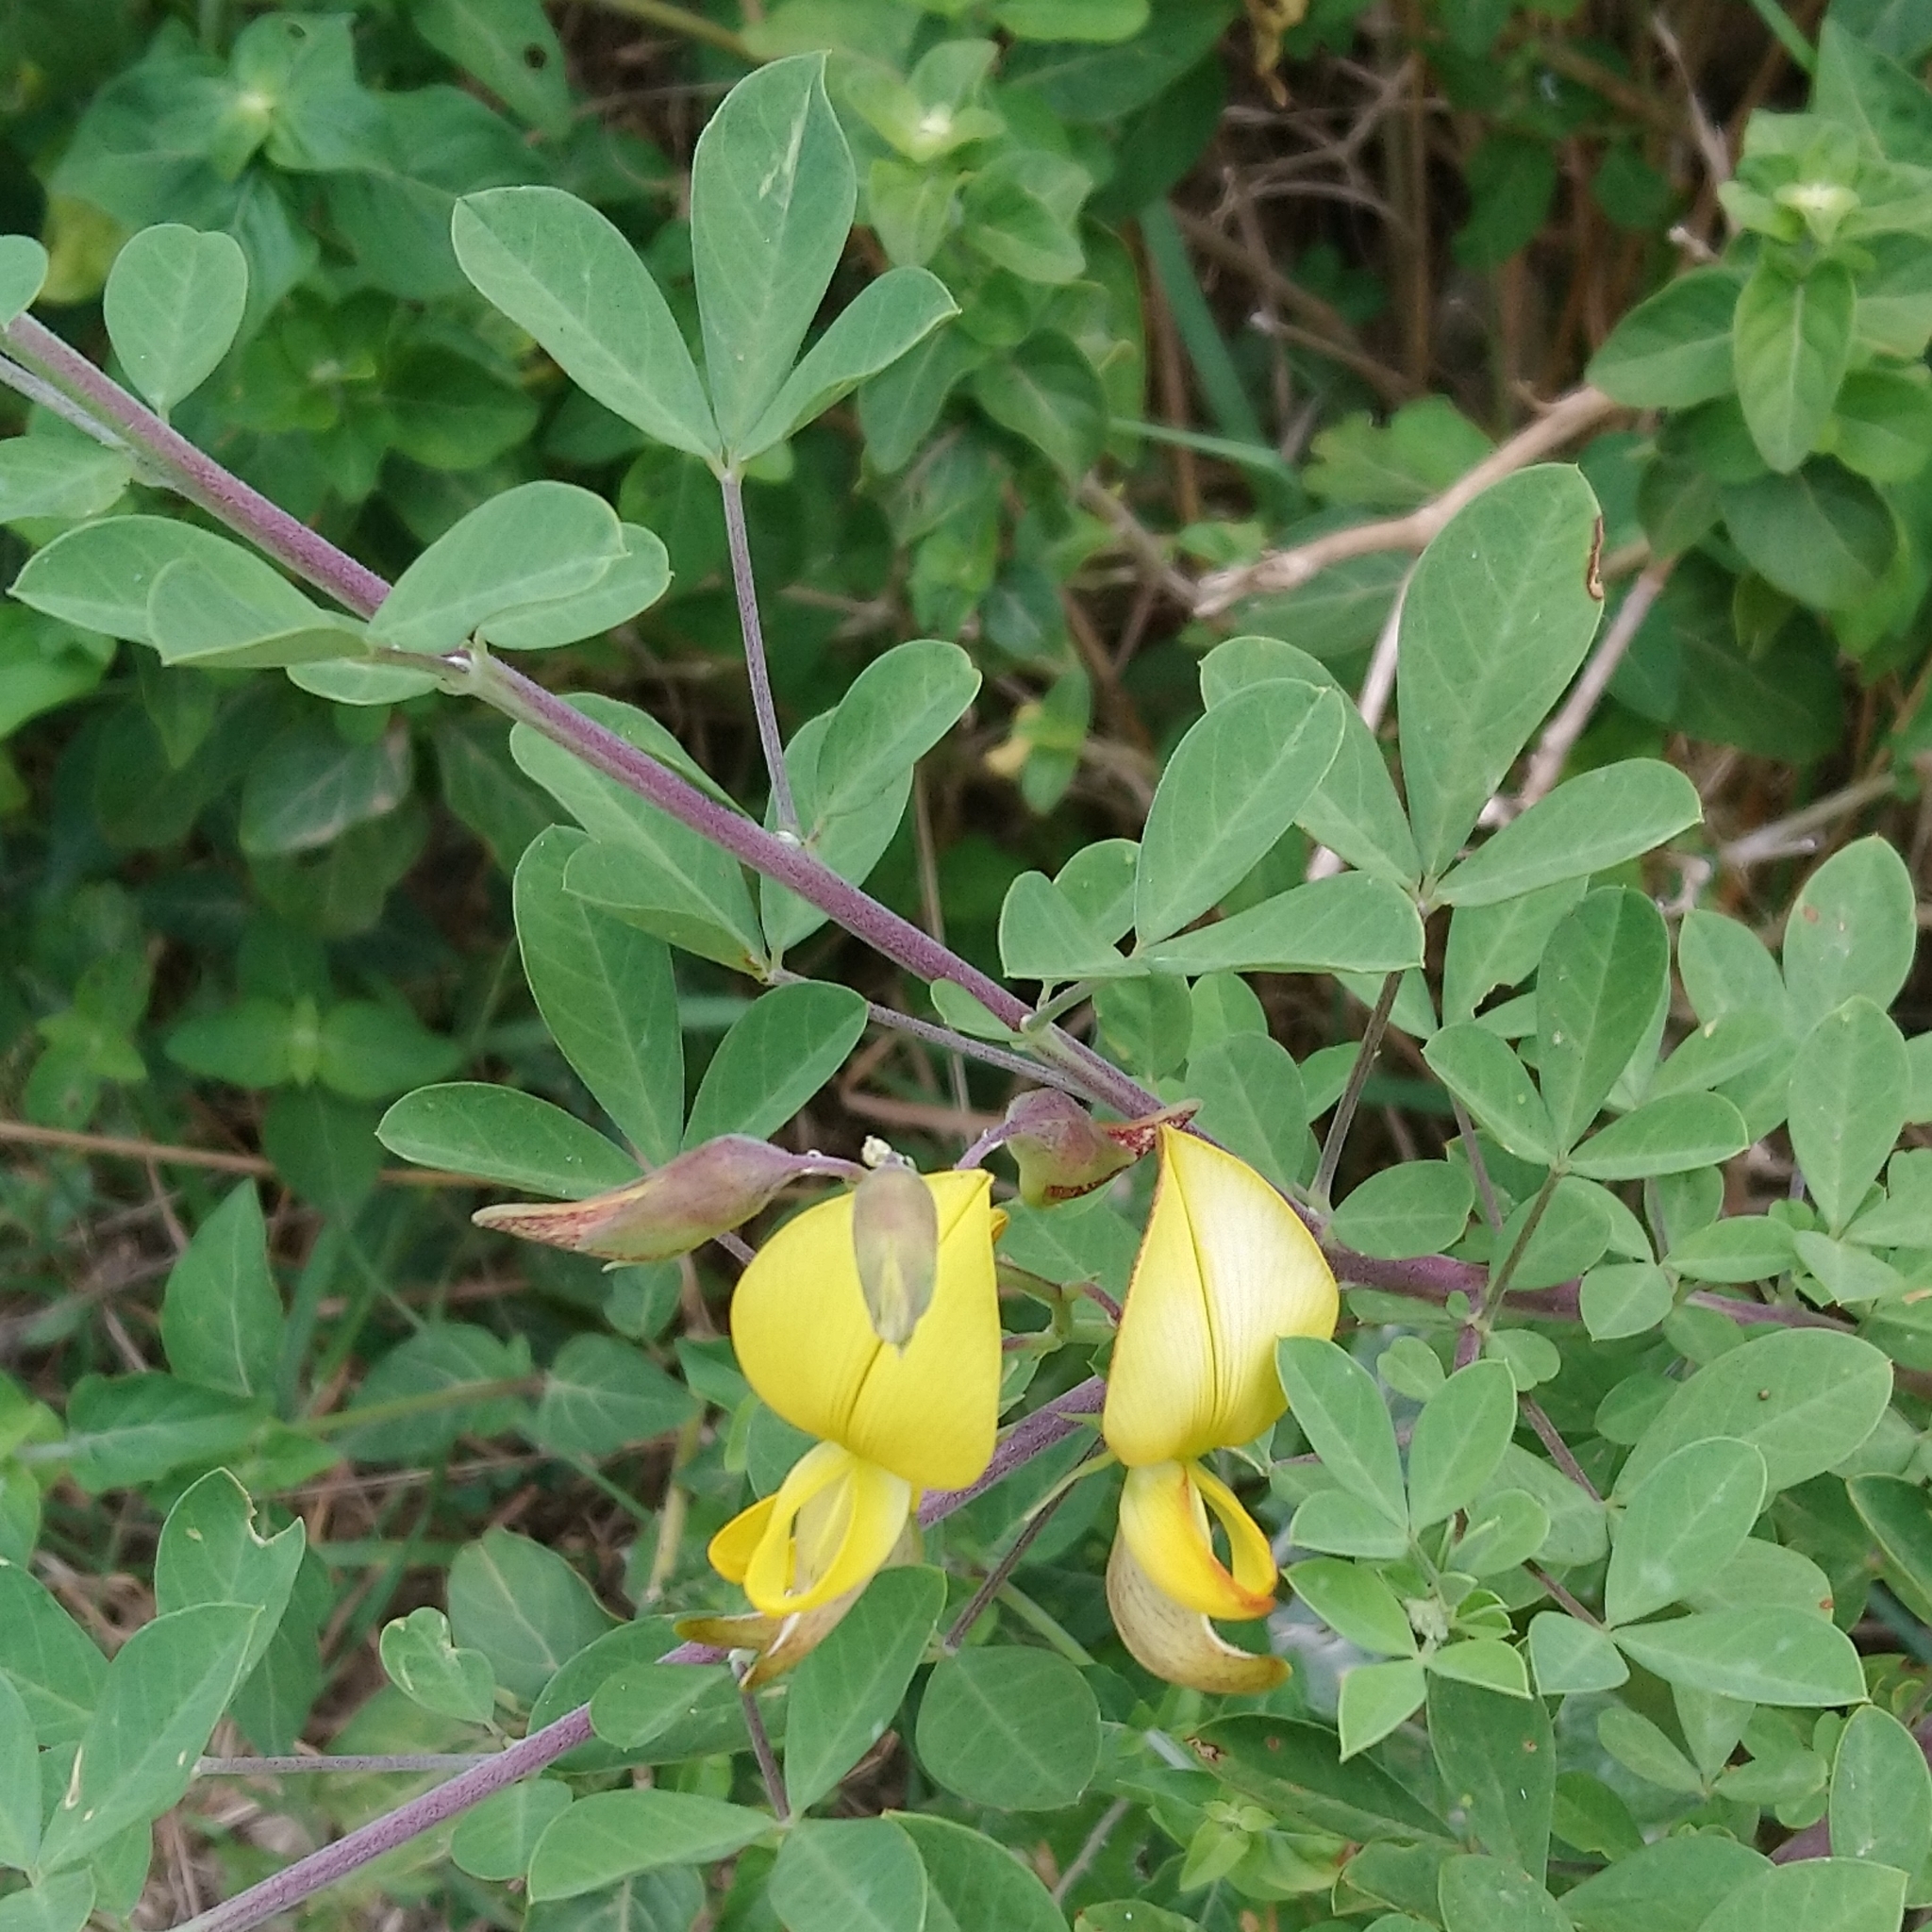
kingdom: Plantae
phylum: Tracheophyta
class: Magnoliopsida
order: Fabales
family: Fabaceae
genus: Crotalaria
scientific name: Crotalaria capensis
